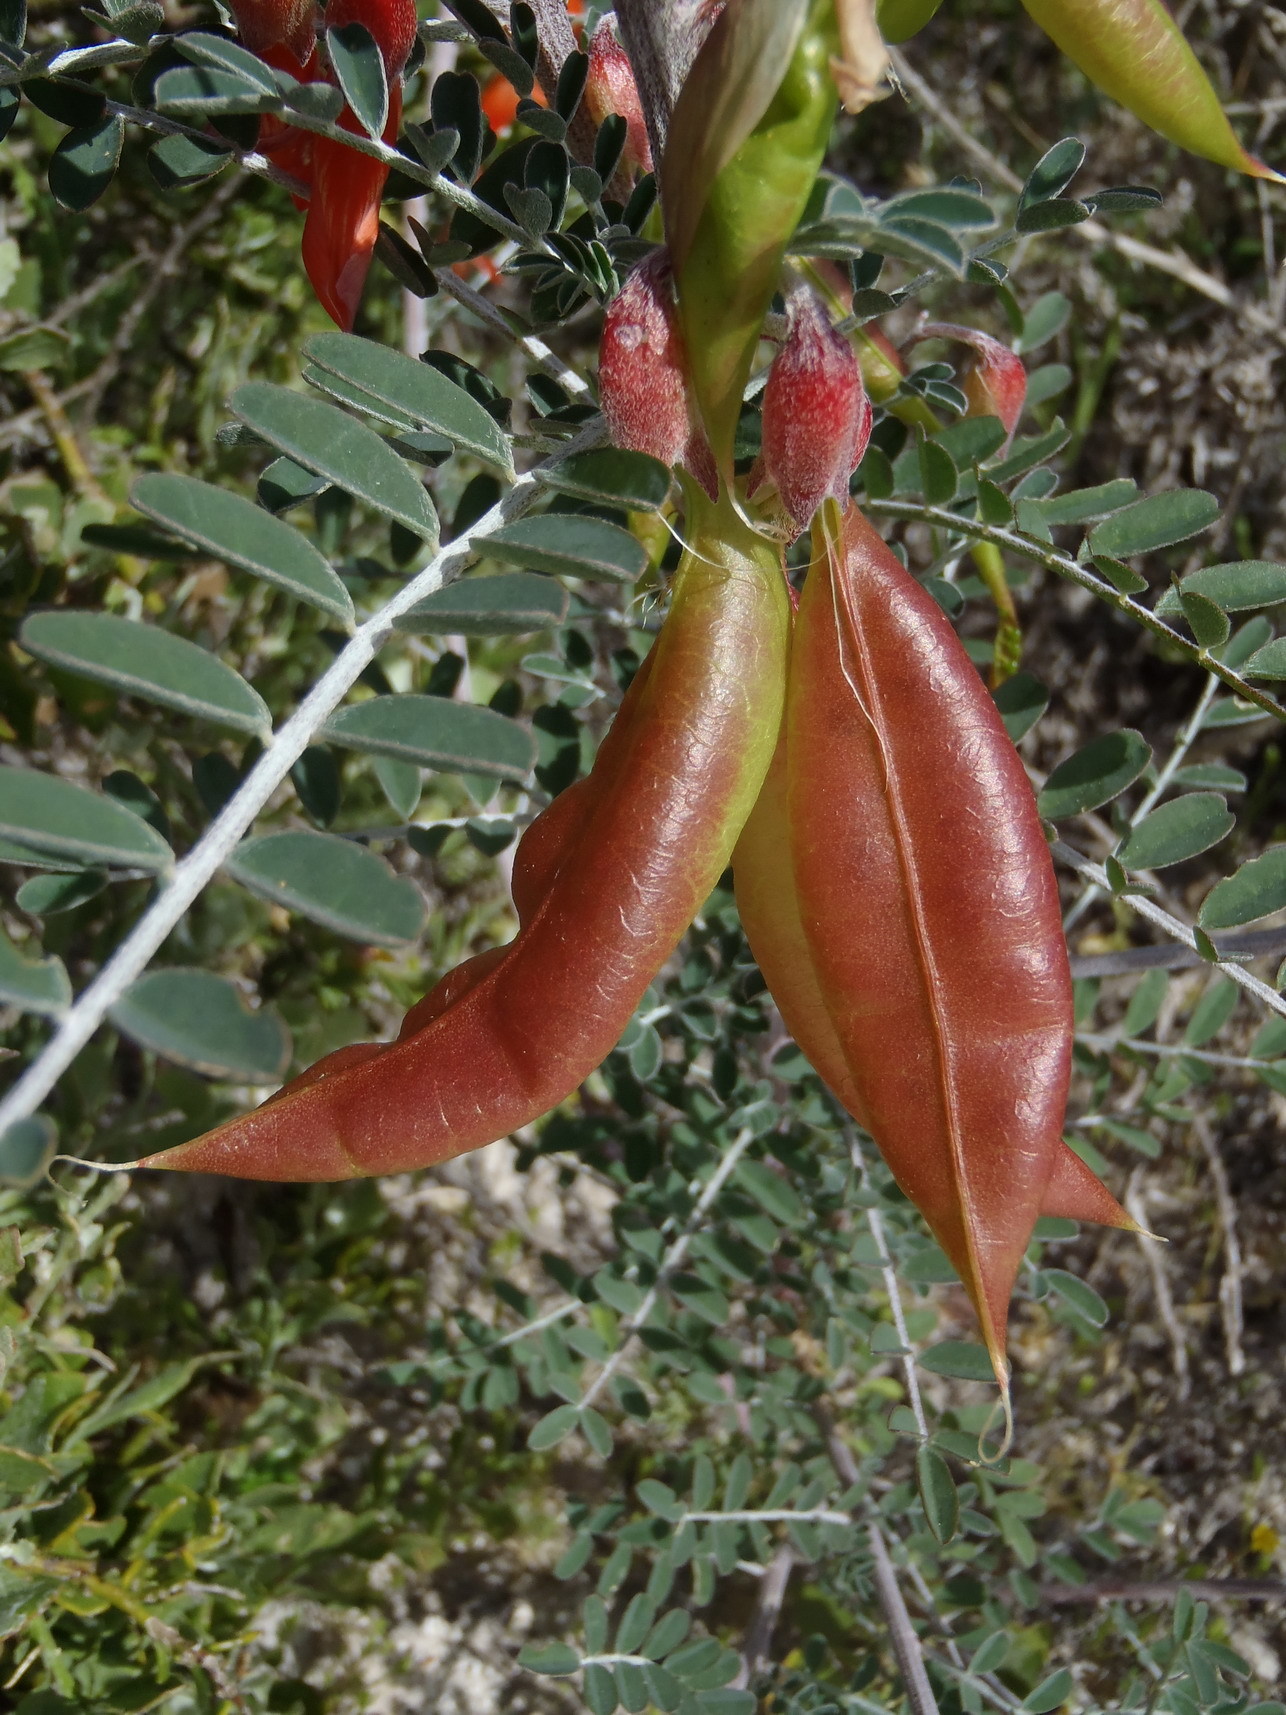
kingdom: Plantae
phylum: Tracheophyta
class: Magnoliopsida
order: Fabales
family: Fabaceae
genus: Lessertia
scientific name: Lessertia frutescens
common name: Balloon-pea
